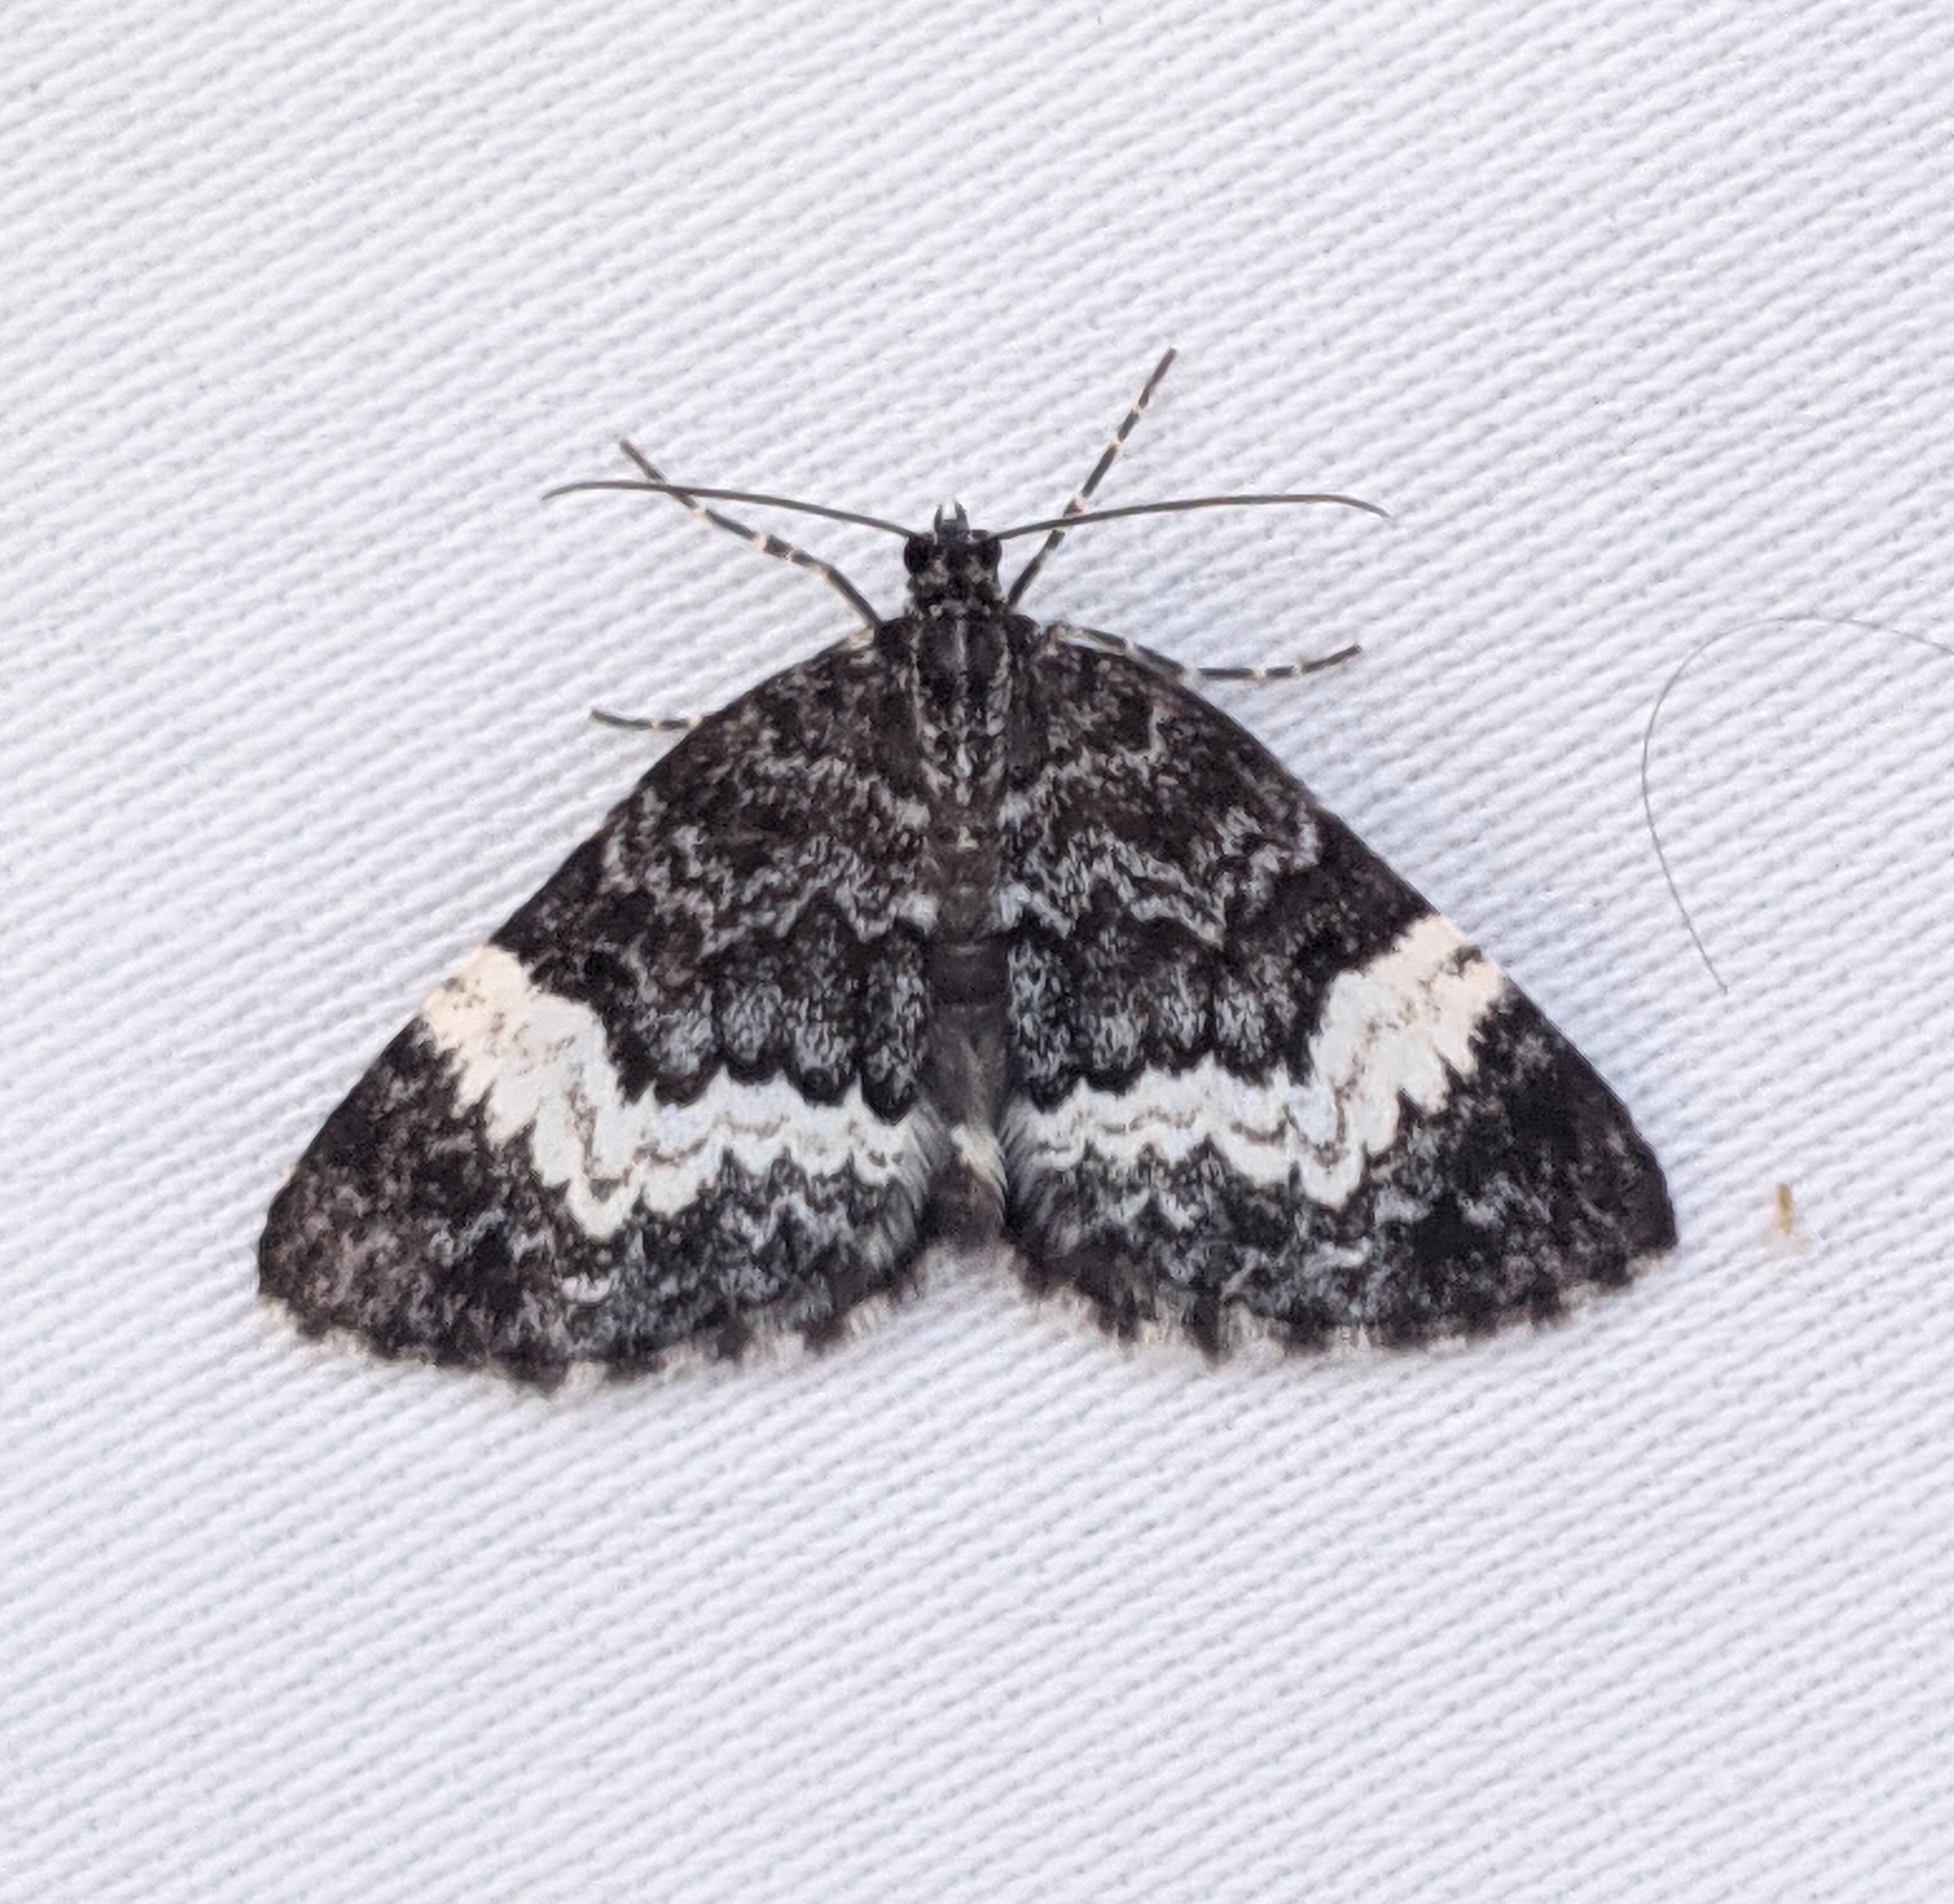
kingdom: Animalia
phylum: Arthropoda
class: Insecta
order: Lepidoptera
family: Geometridae
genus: Spargania
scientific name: Spargania luctuata
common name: White-banded carpet
